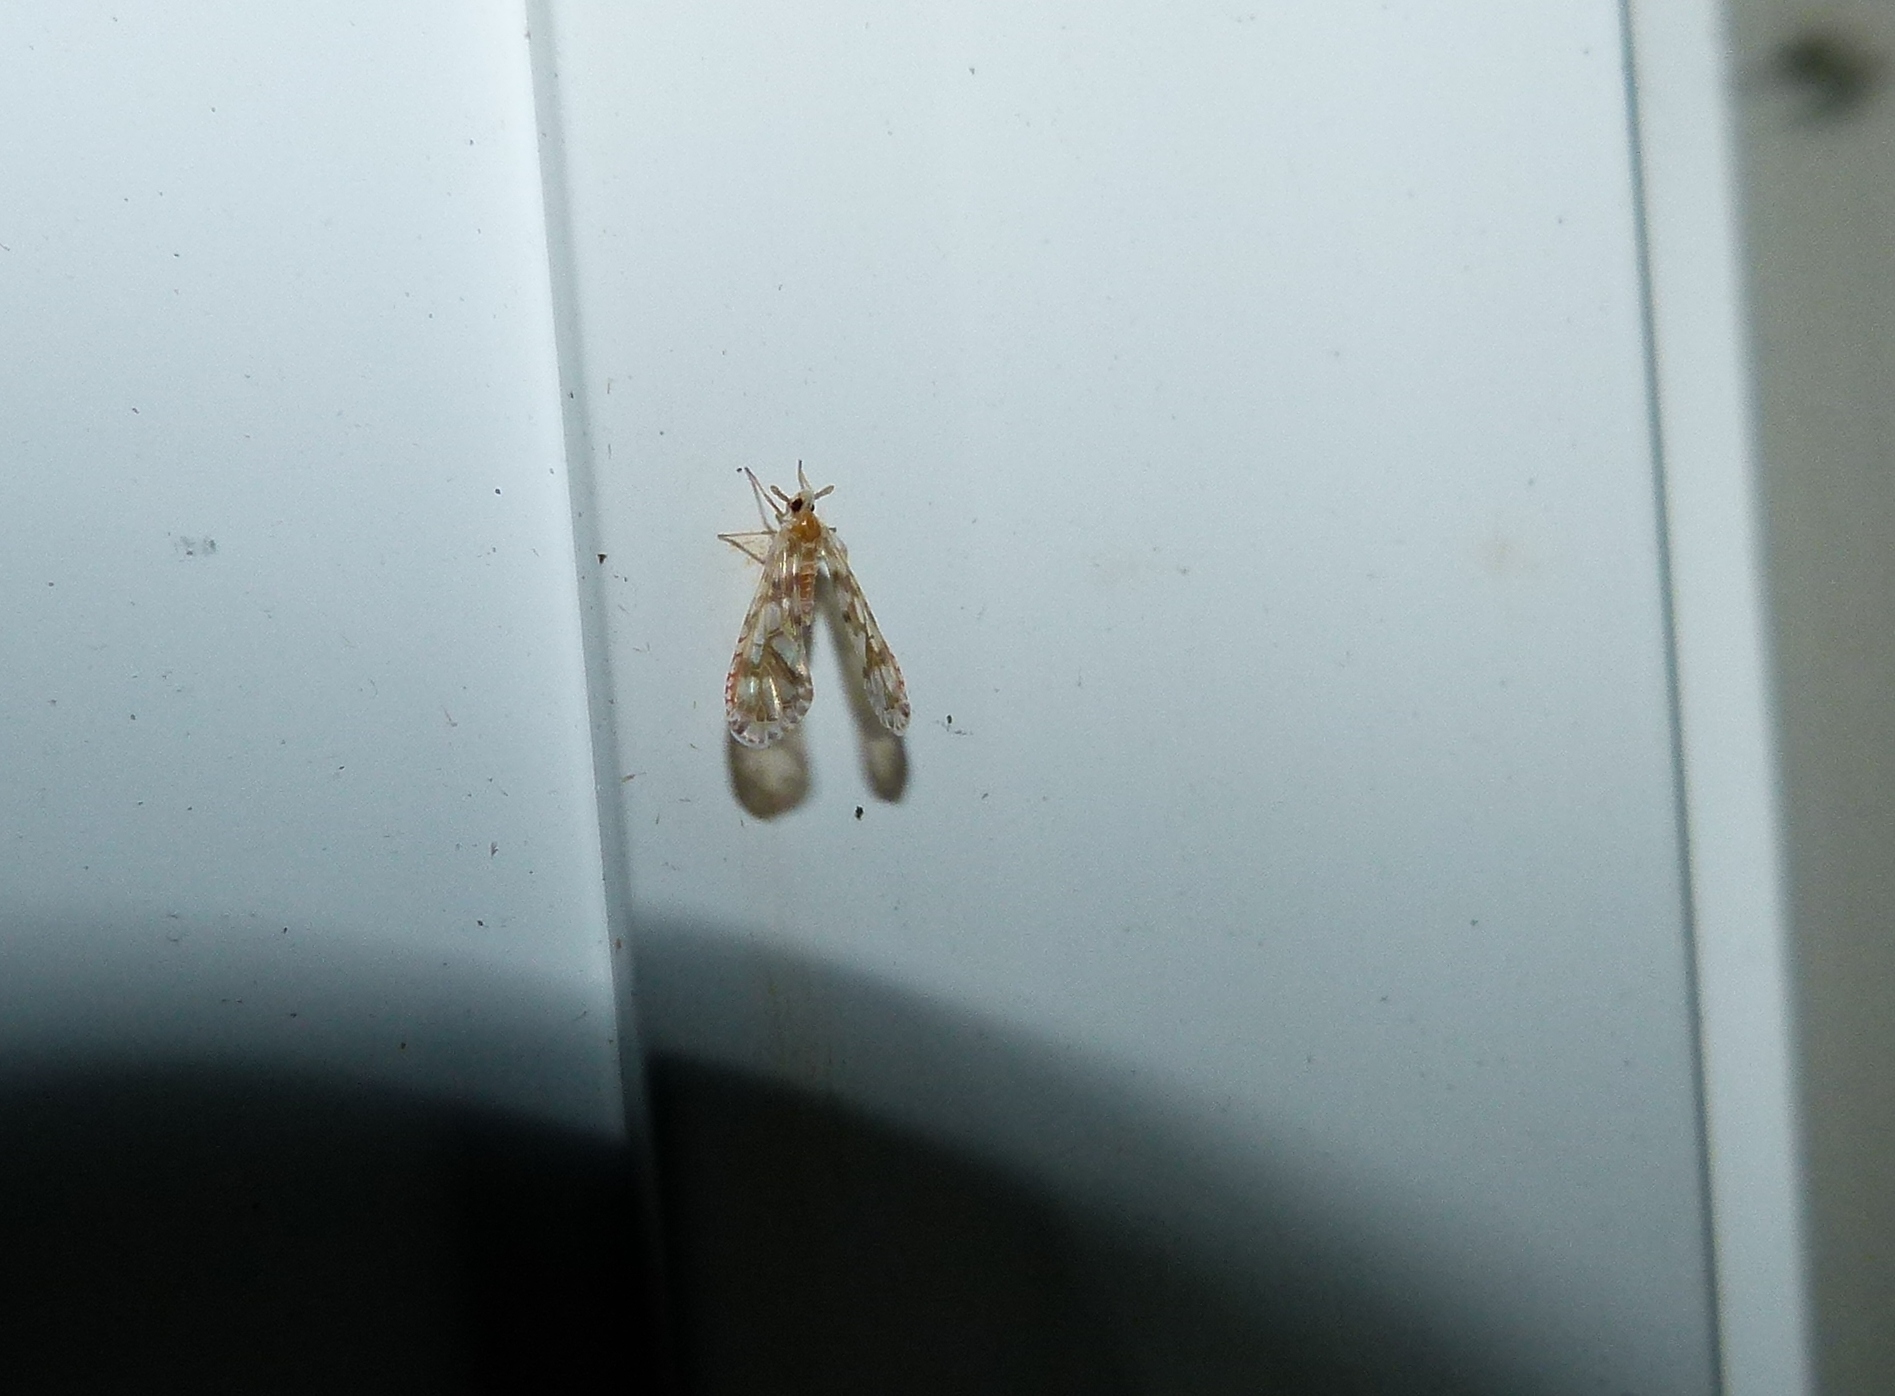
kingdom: Animalia
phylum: Arthropoda
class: Insecta
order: Hemiptera
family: Derbidae
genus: Anotia
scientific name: Anotia kirkaldyi
